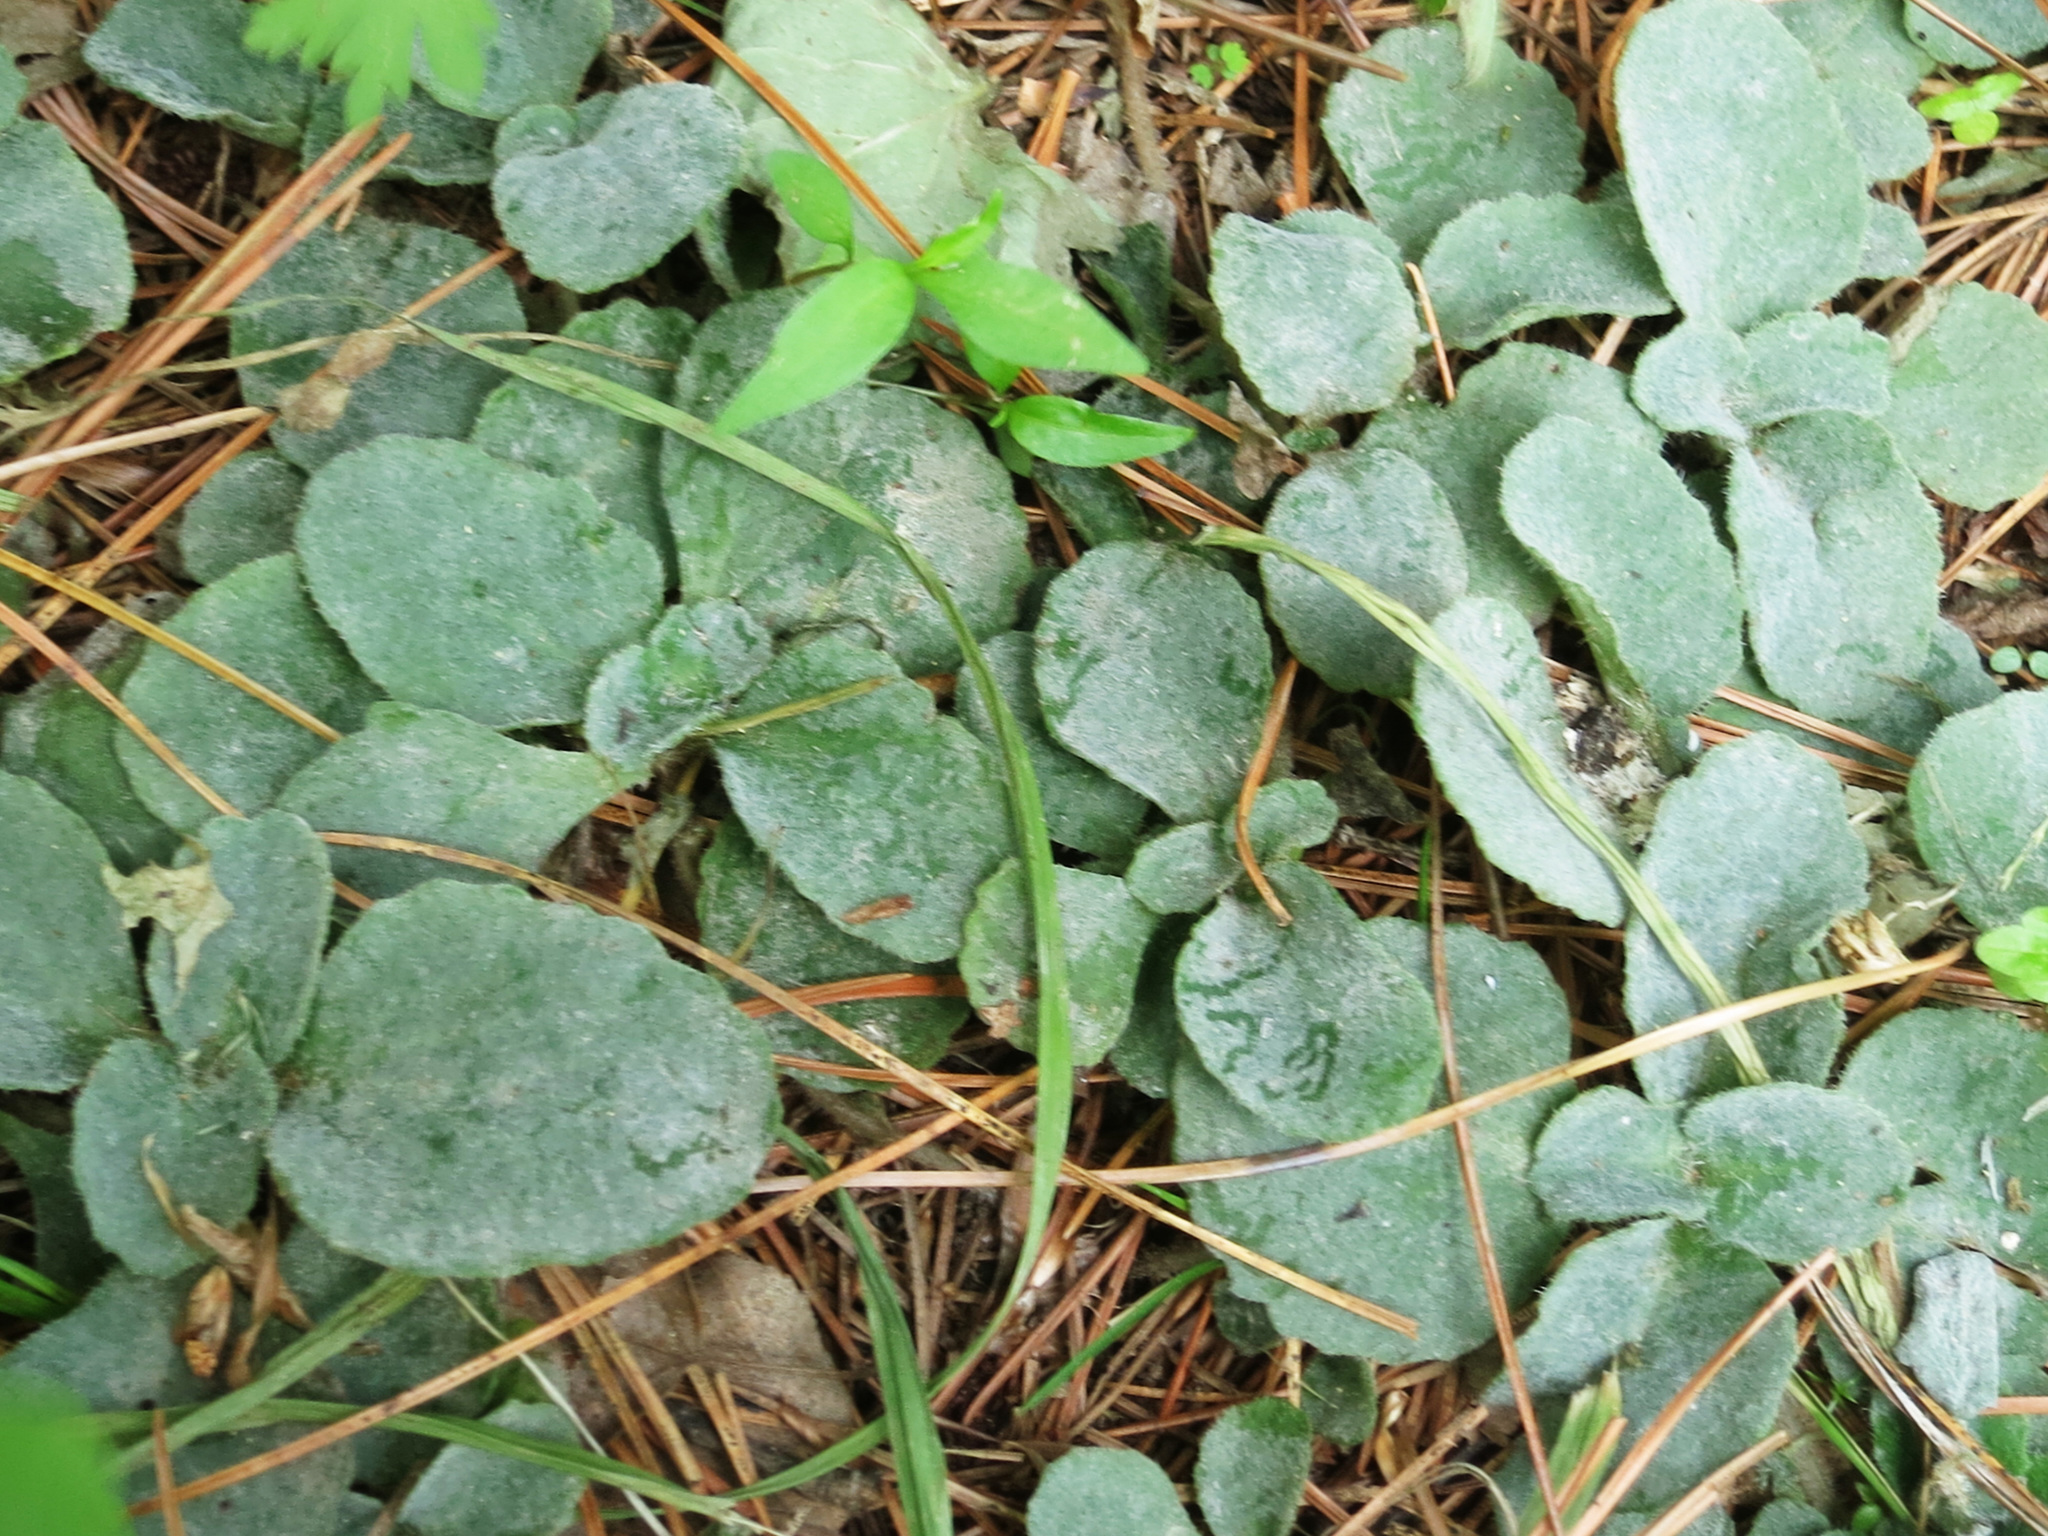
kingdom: Plantae
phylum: Tracheophyta
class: Magnoliopsida
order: Saxifragales
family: Saxifragaceae
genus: Chrysosplenium
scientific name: Chrysosplenium pilosum
